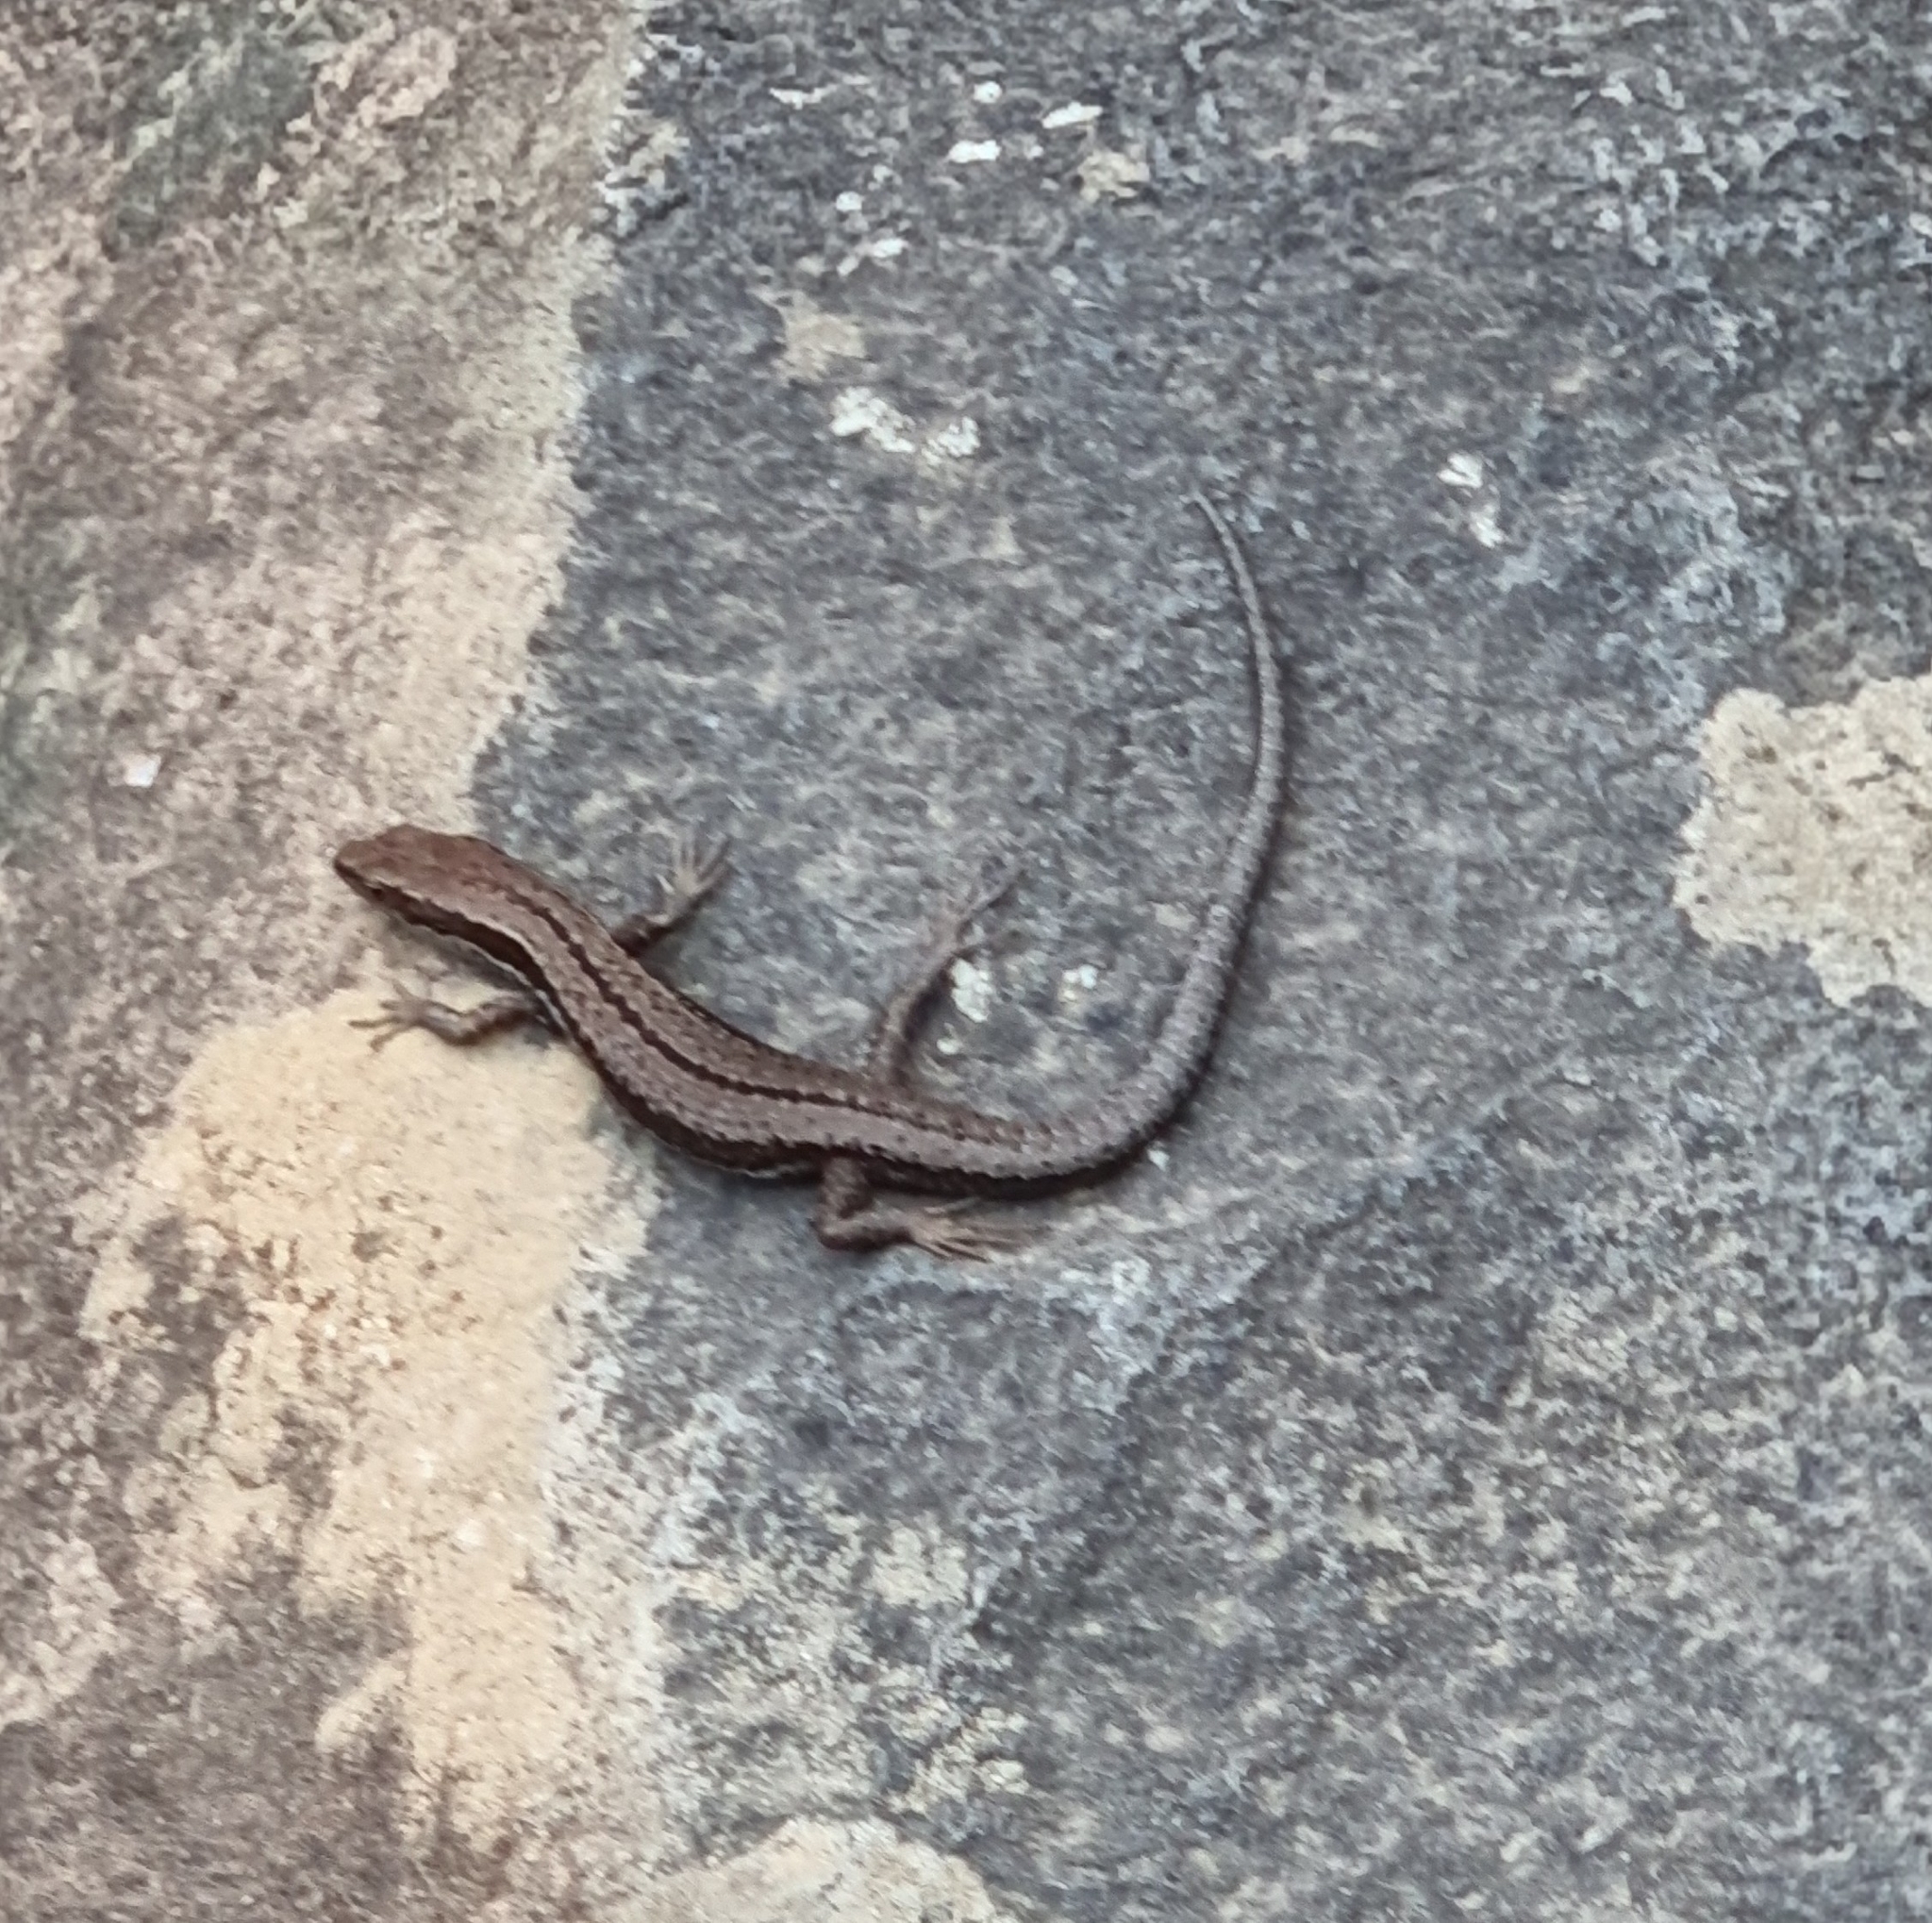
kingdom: Animalia
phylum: Chordata
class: Squamata
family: Scincidae
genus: Carinascincus
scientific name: Carinascincus pretiosus
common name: Agile cool-skink
